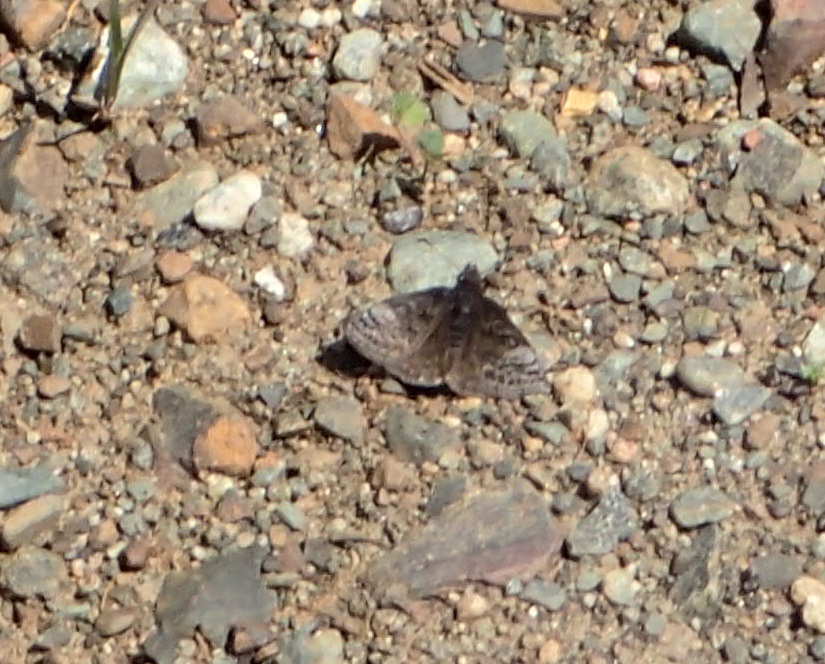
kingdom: Animalia
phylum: Arthropoda
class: Insecta
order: Lepidoptera
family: Hesperiidae
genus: Erynnis
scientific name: Erynnis icelus
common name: Dreamy duskywing
